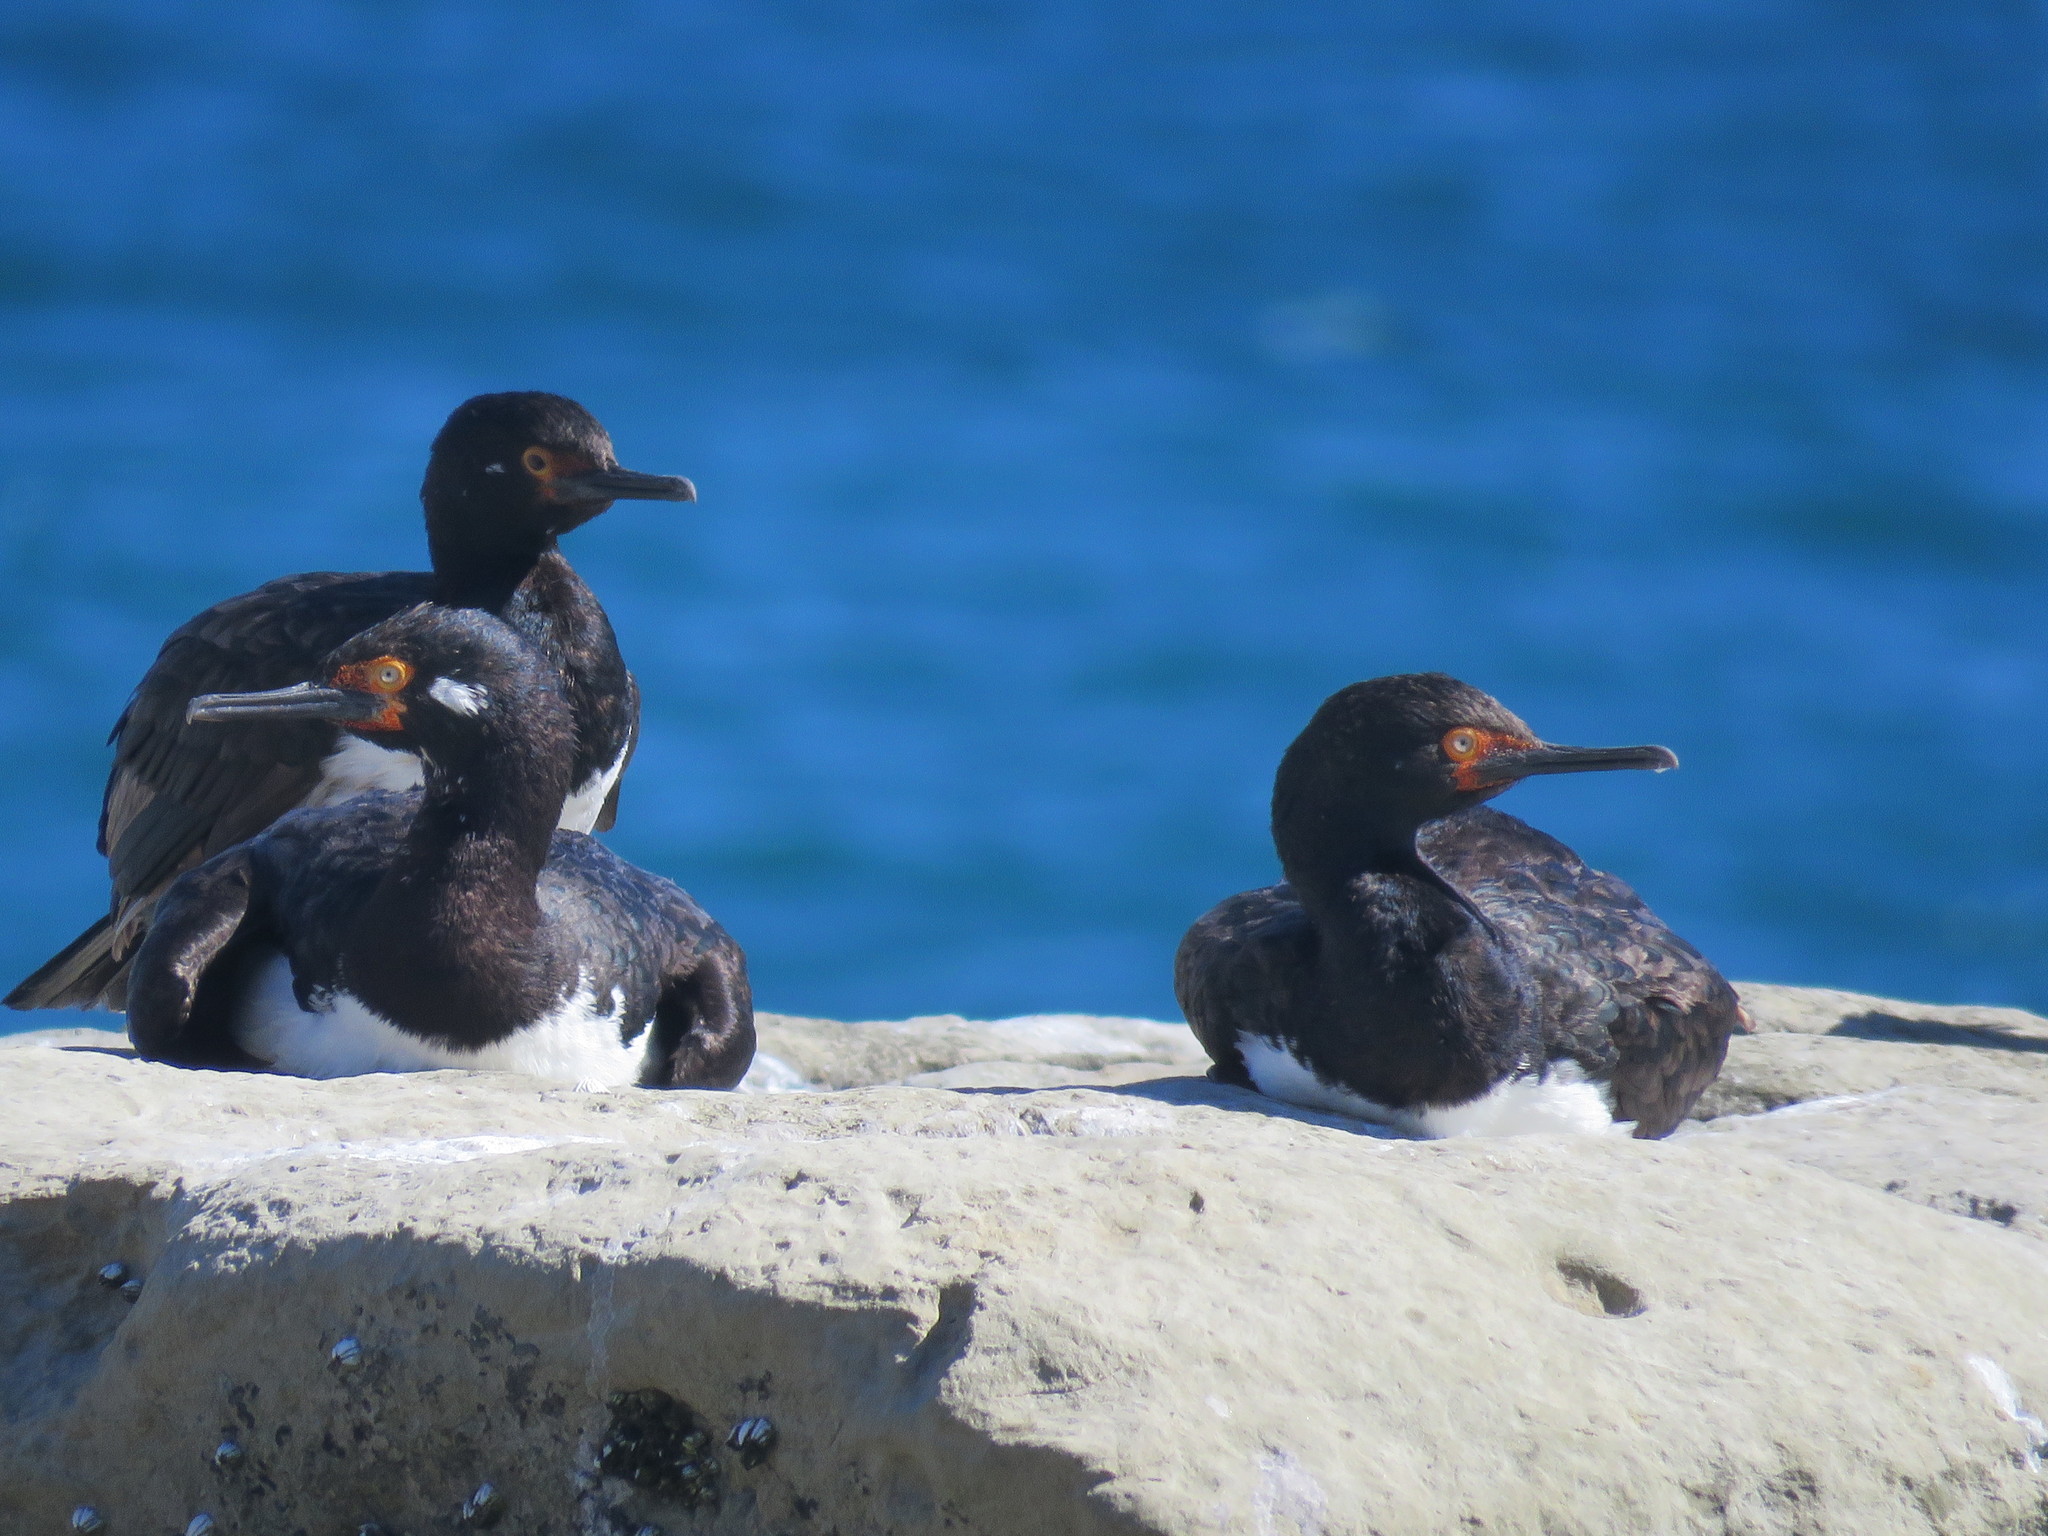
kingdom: Animalia
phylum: Chordata
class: Aves
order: Suliformes
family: Phalacrocoracidae
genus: Phalacrocorax
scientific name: Phalacrocorax magellanicus
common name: Rock shag
